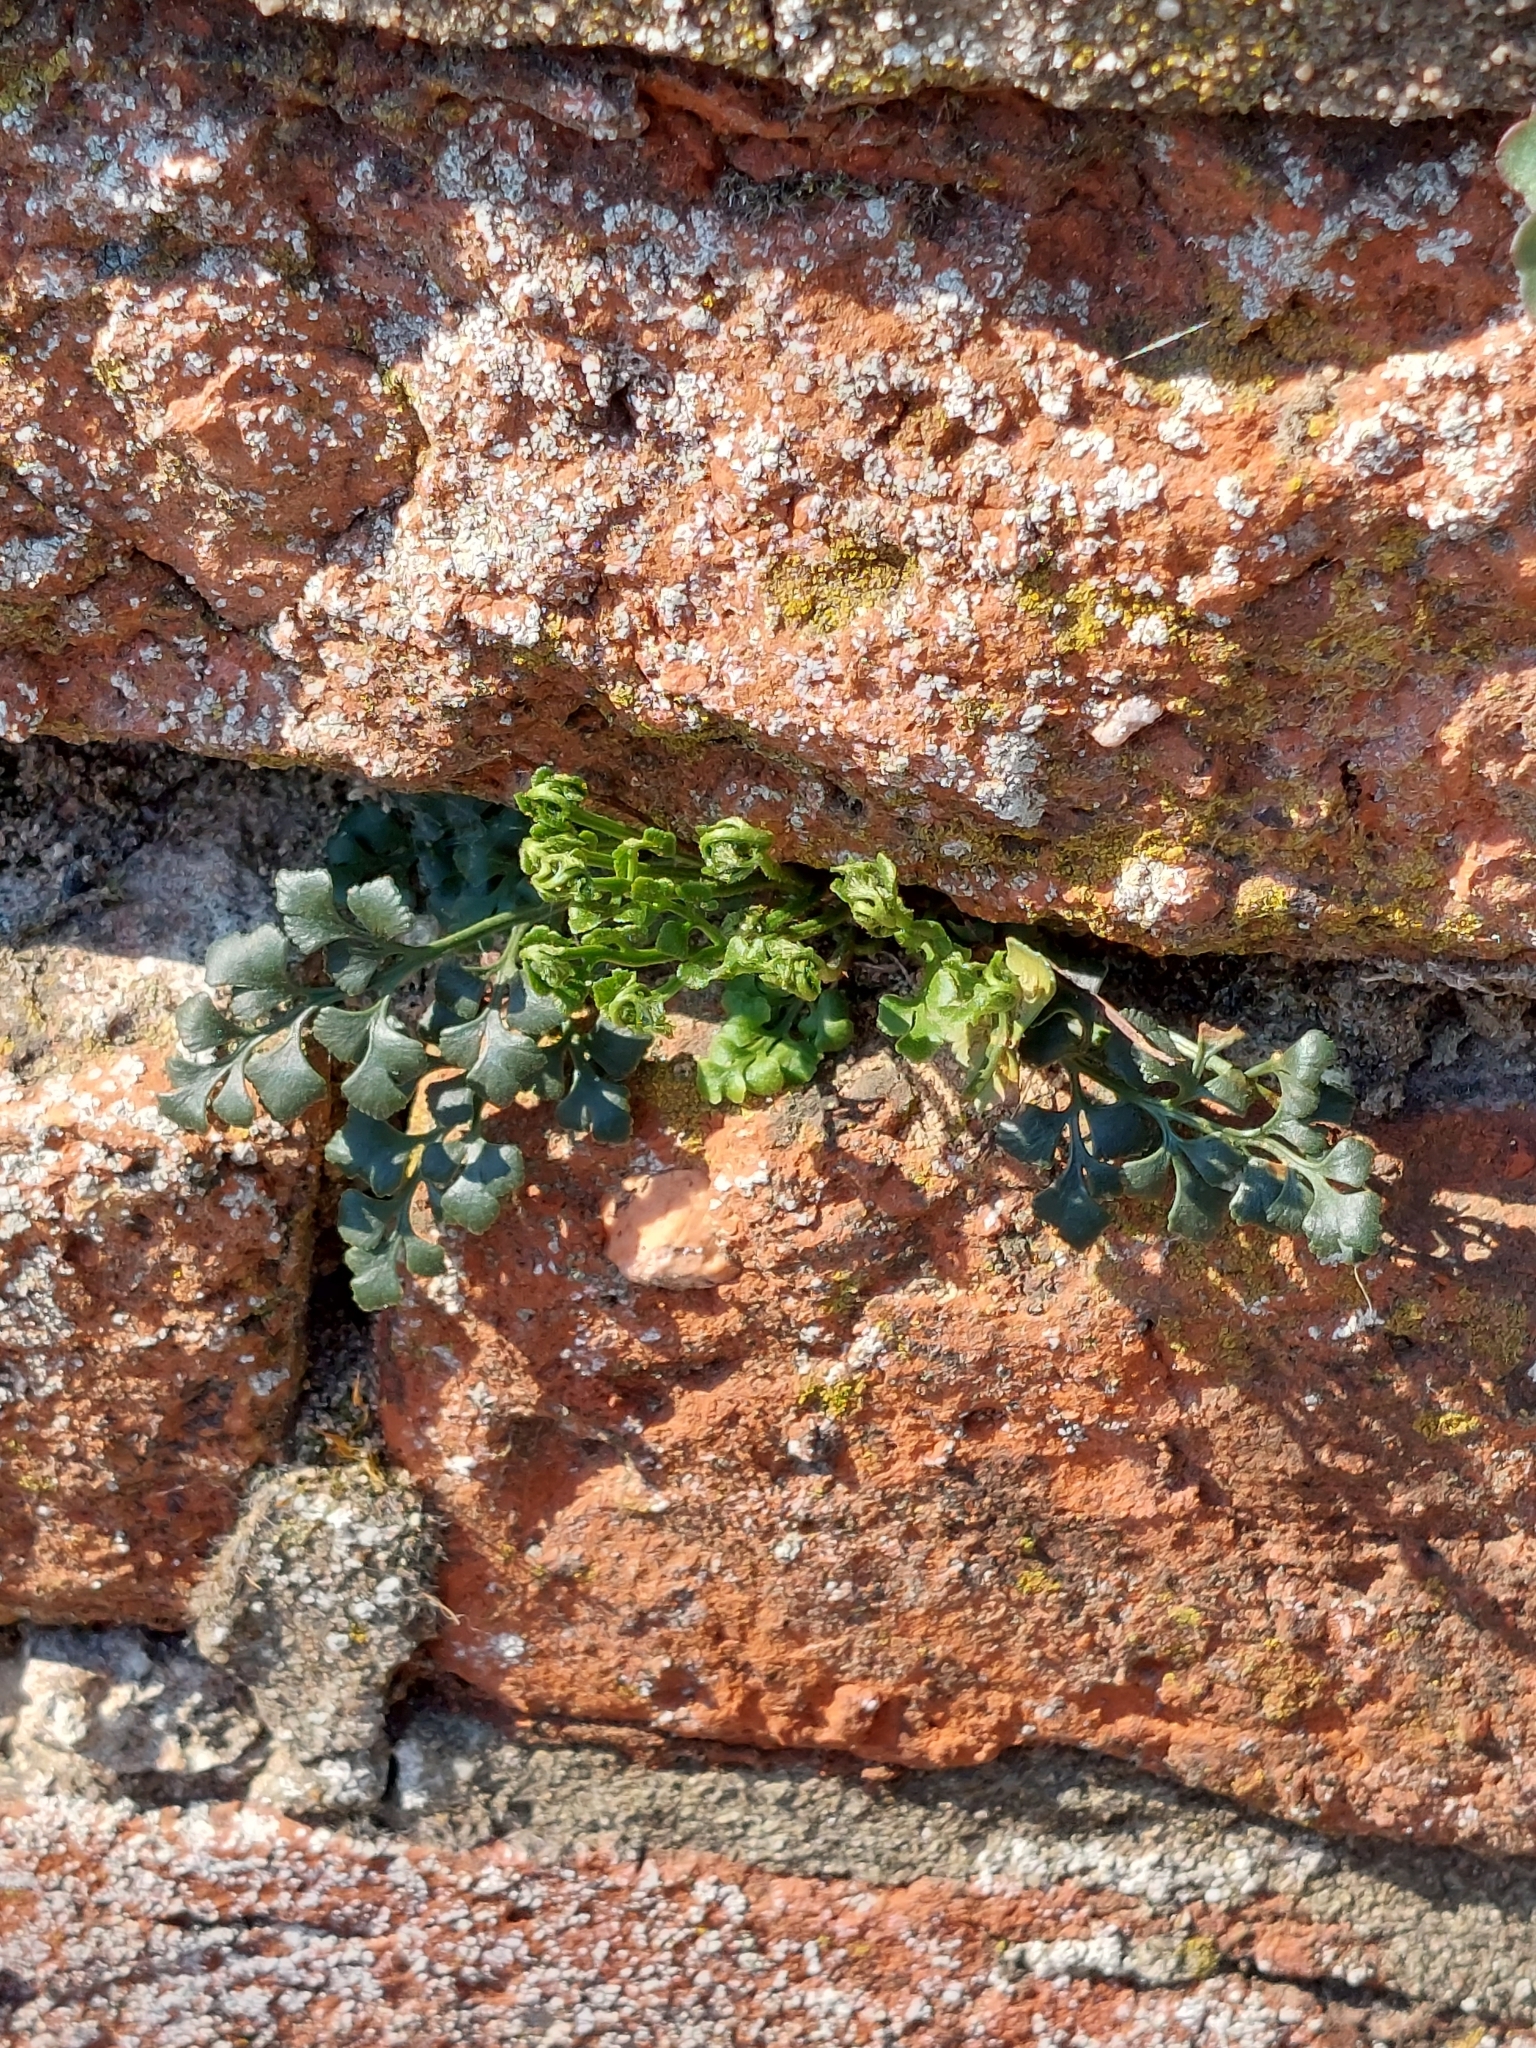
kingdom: Plantae
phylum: Tracheophyta
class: Polypodiopsida
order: Polypodiales
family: Aspleniaceae
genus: Asplenium
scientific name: Asplenium ruta-muraria
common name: Wall-rue
